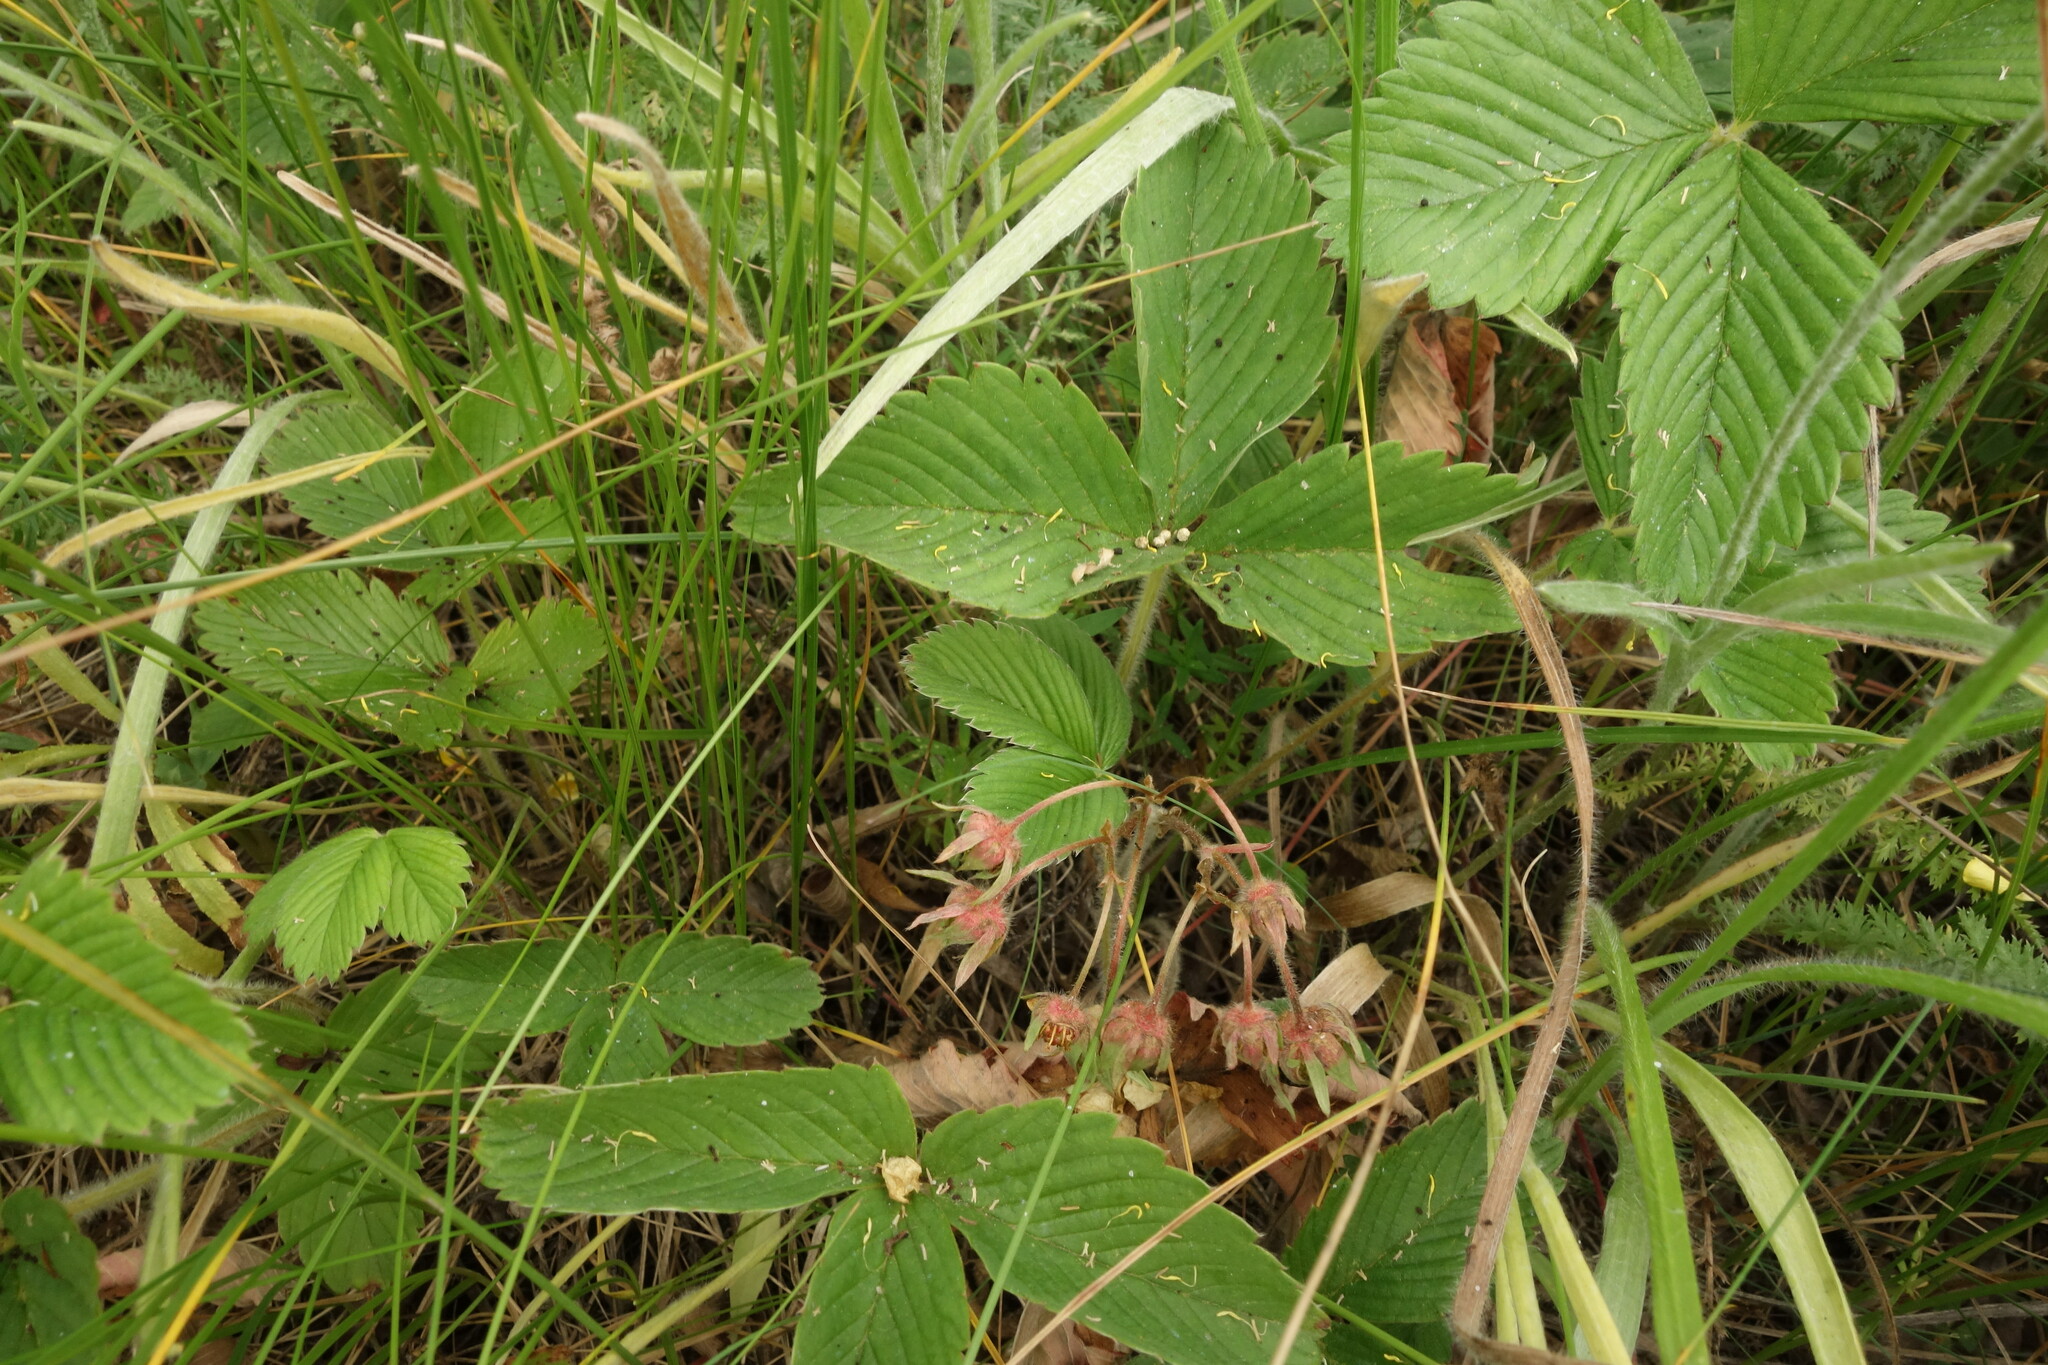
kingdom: Plantae
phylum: Tracheophyta
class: Magnoliopsida
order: Rosales
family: Rosaceae
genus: Fragaria
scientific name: Fragaria viridis
